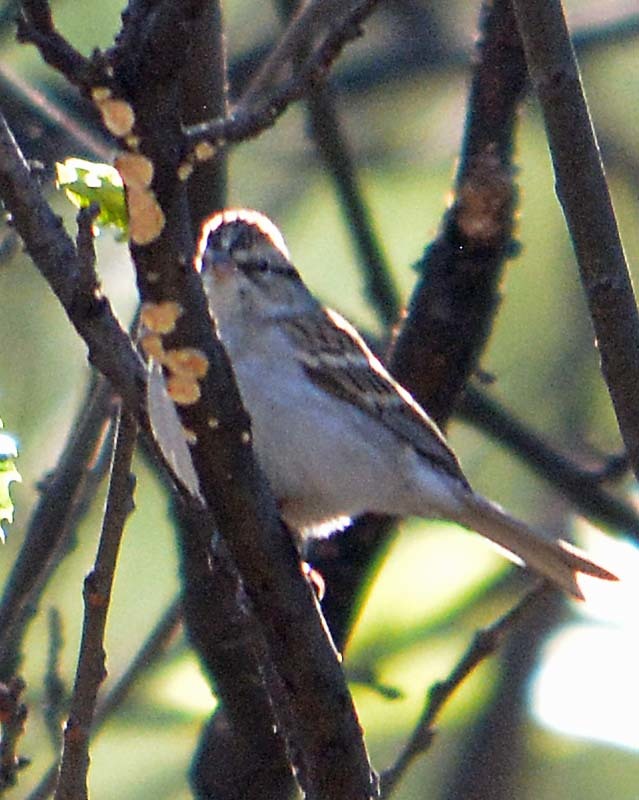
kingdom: Animalia
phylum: Chordata
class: Aves
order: Passeriformes
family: Passerellidae
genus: Spizella
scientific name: Spizella passerina
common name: Chipping sparrow
